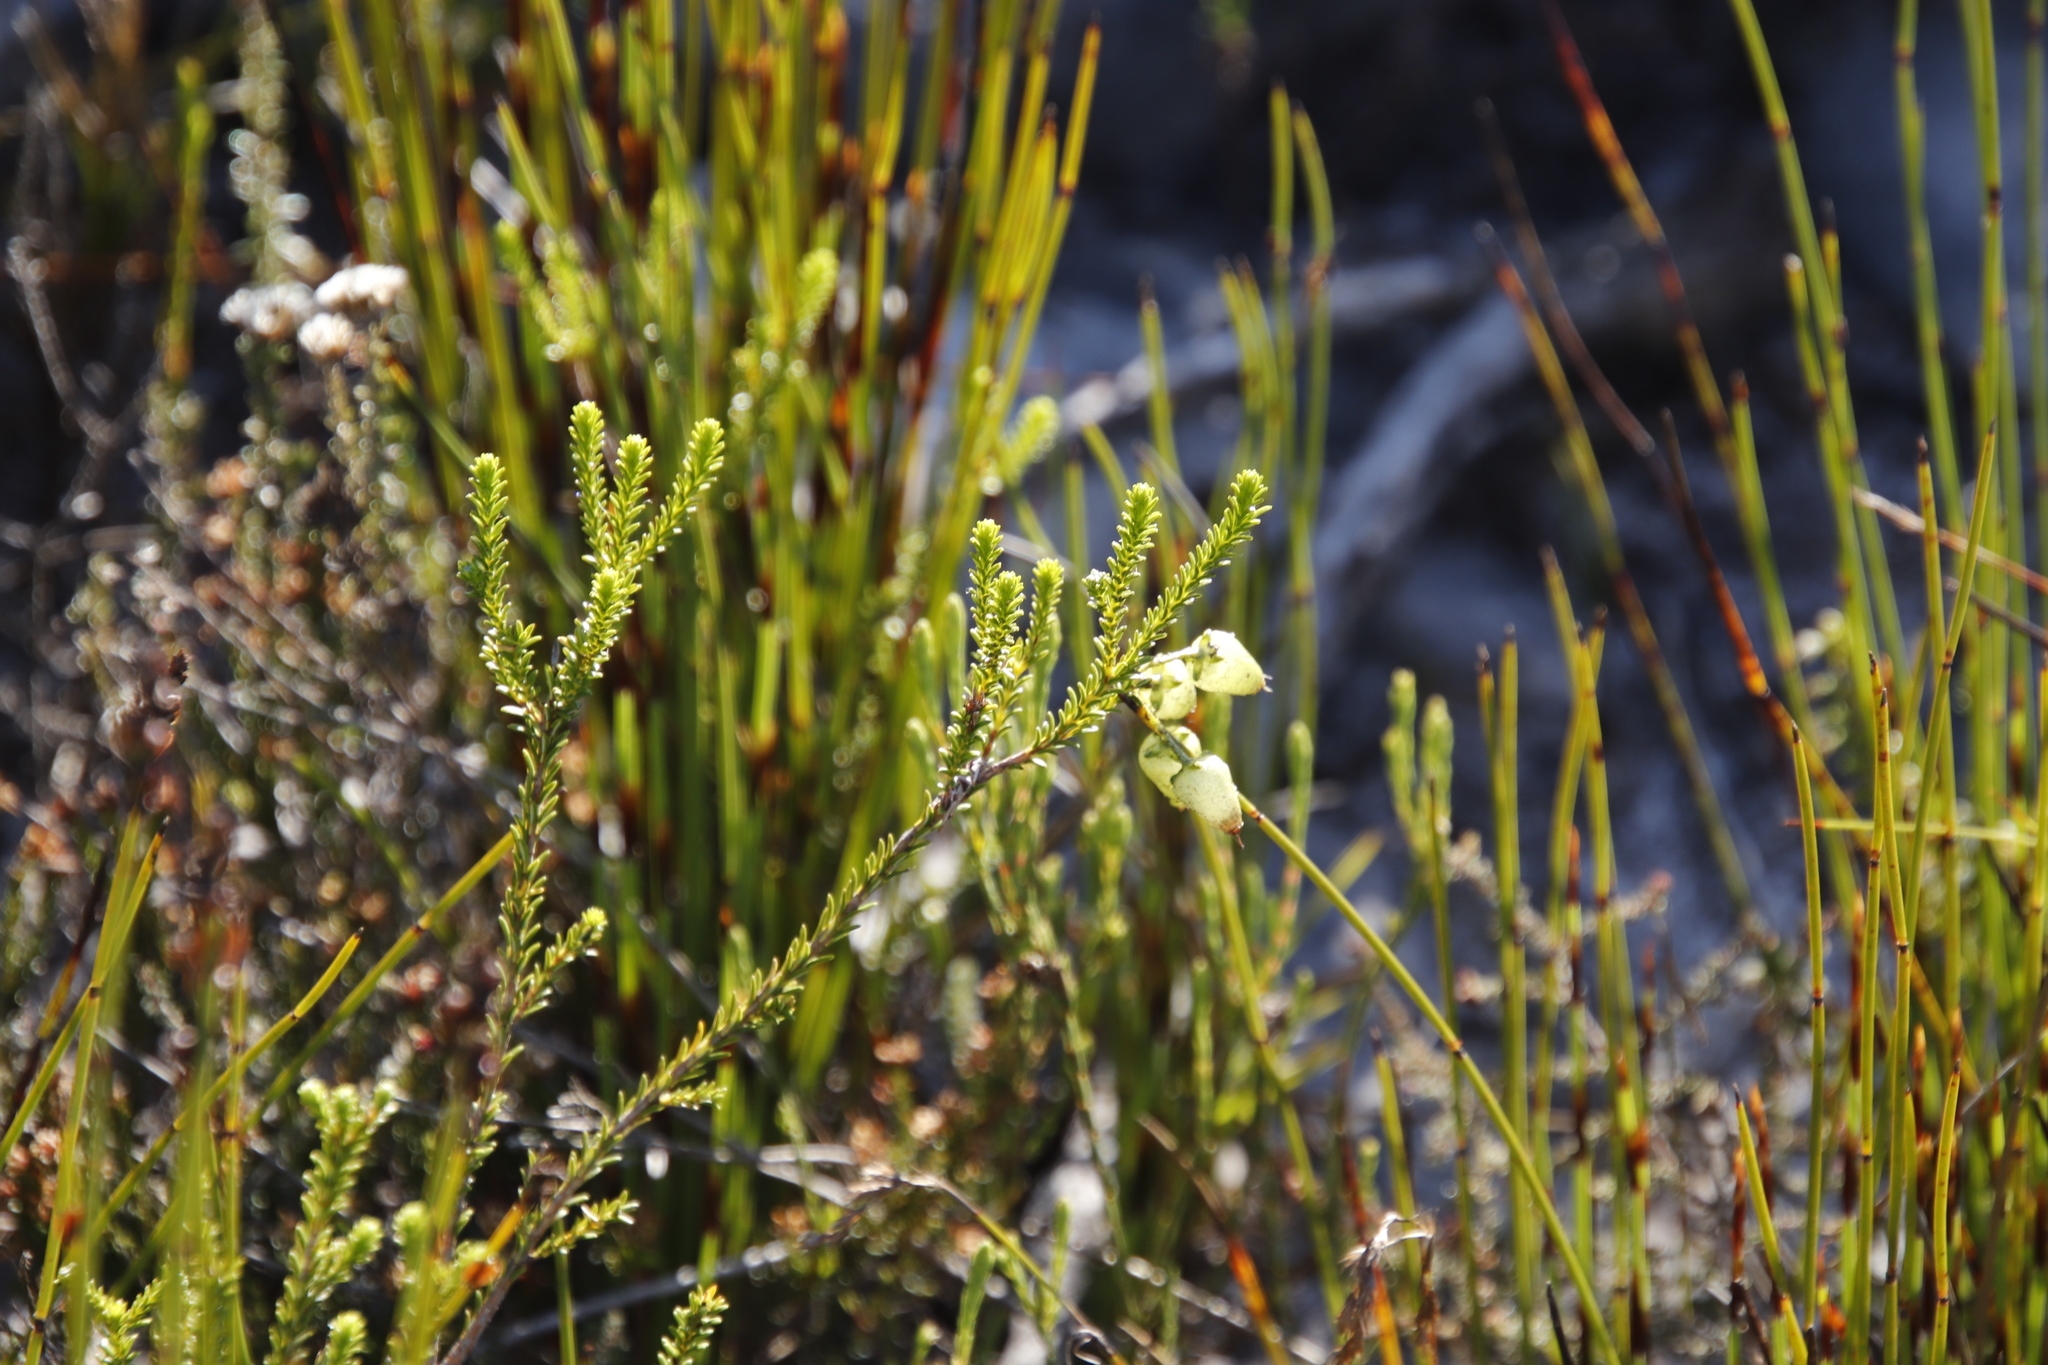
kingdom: Plantae
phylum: Tracheophyta
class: Magnoliopsida
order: Ericales
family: Ericaceae
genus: Erica
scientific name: Erica urna-viridis
